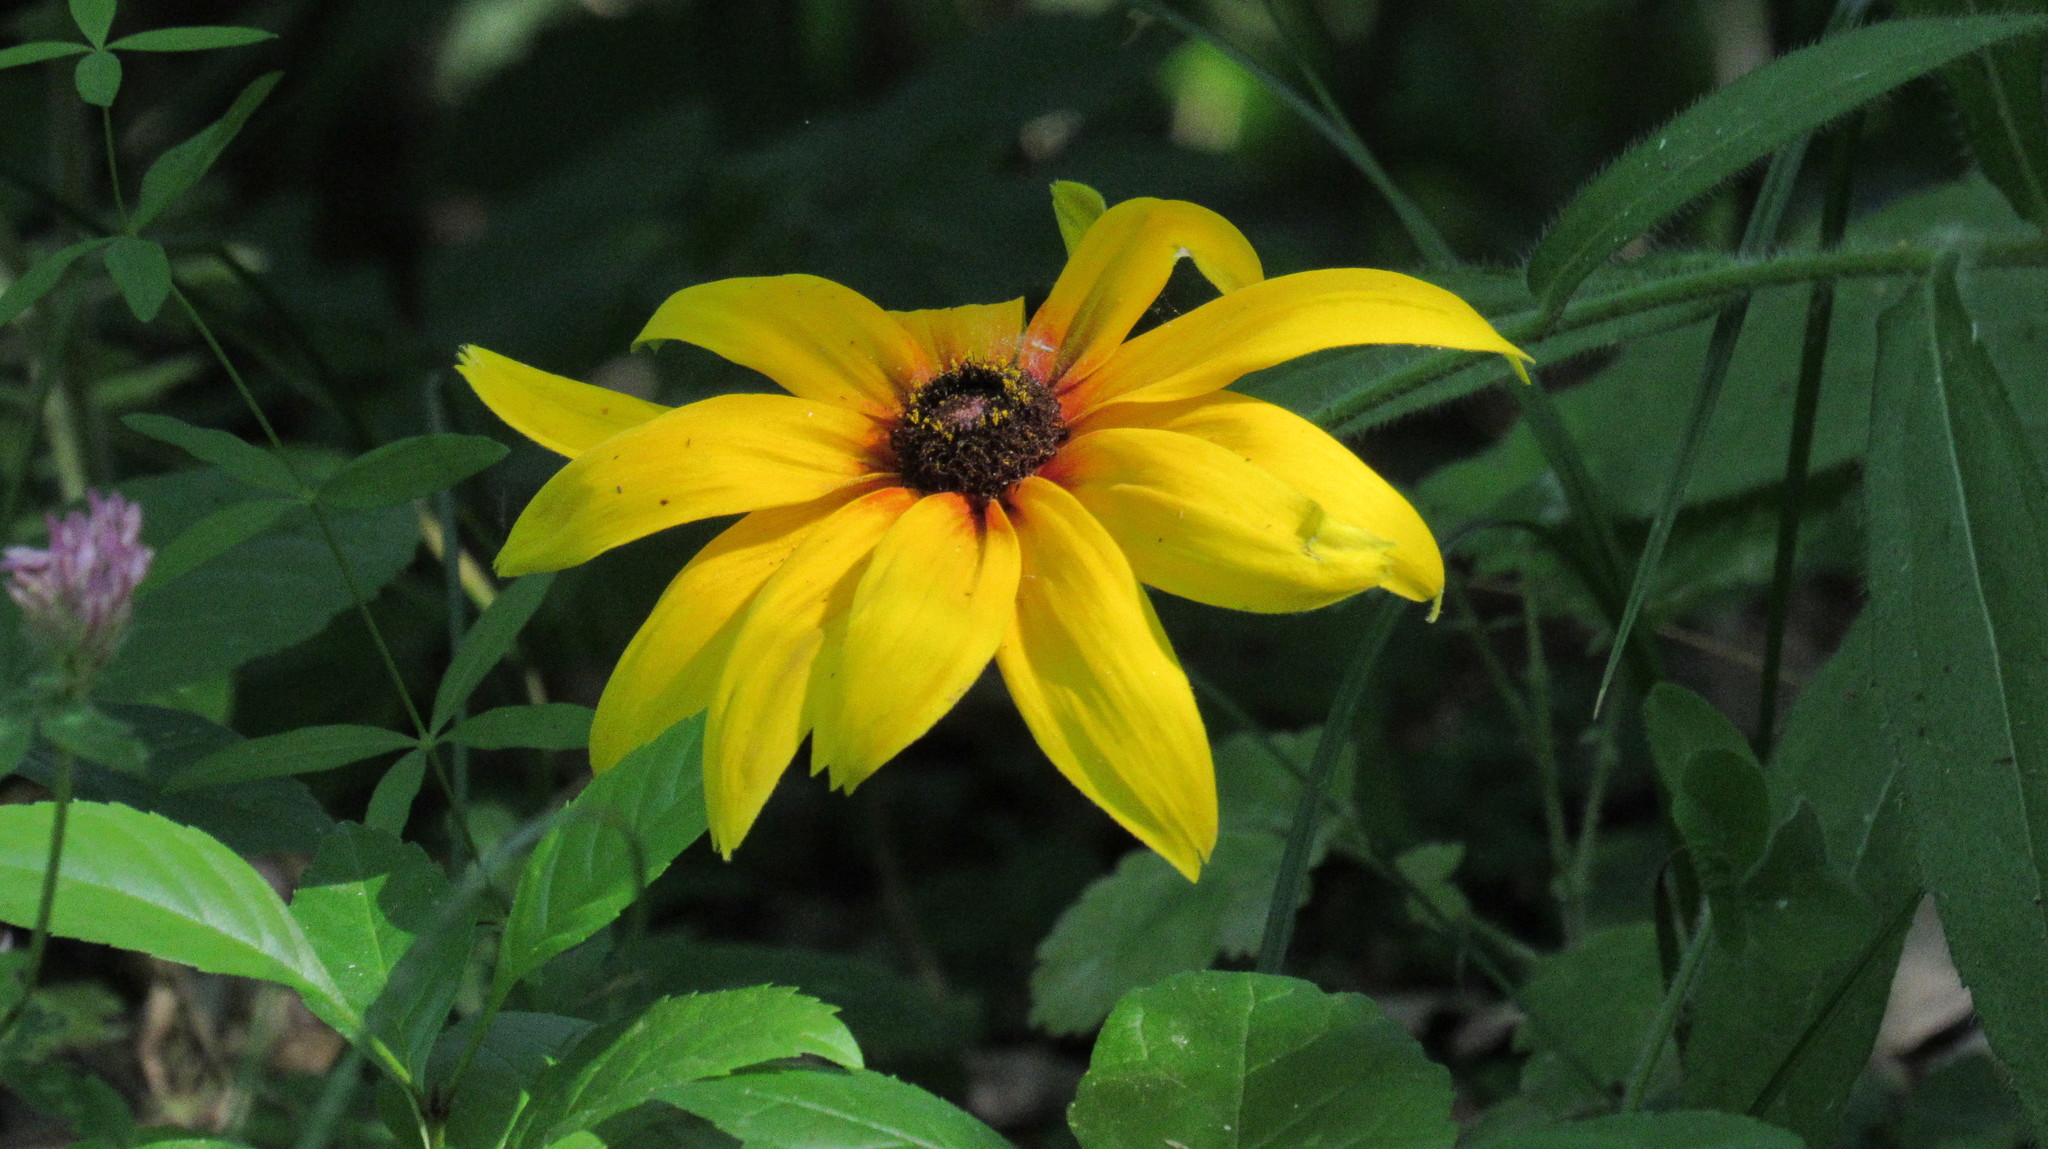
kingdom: Plantae
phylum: Tracheophyta
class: Magnoliopsida
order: Asterales
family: Asteraceae
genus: Rudbeckia
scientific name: Rudbeckia hirta
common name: Black-eyed-susan
